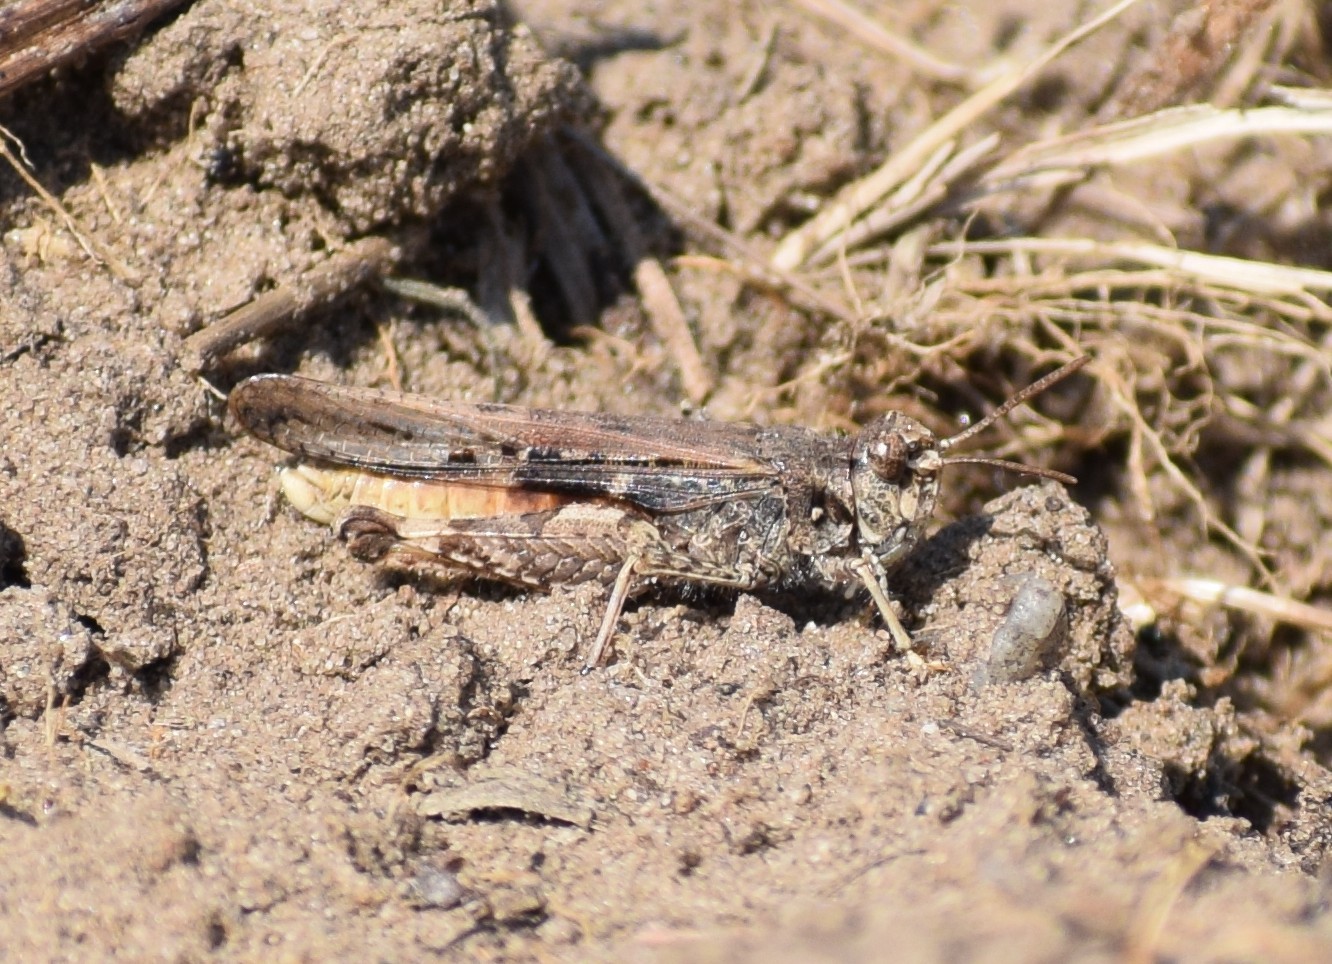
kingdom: Animalia
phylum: Arthropoda
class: Insecta
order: Orthoptera
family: Acrididae
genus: Acrotylus
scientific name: Acrotylus
